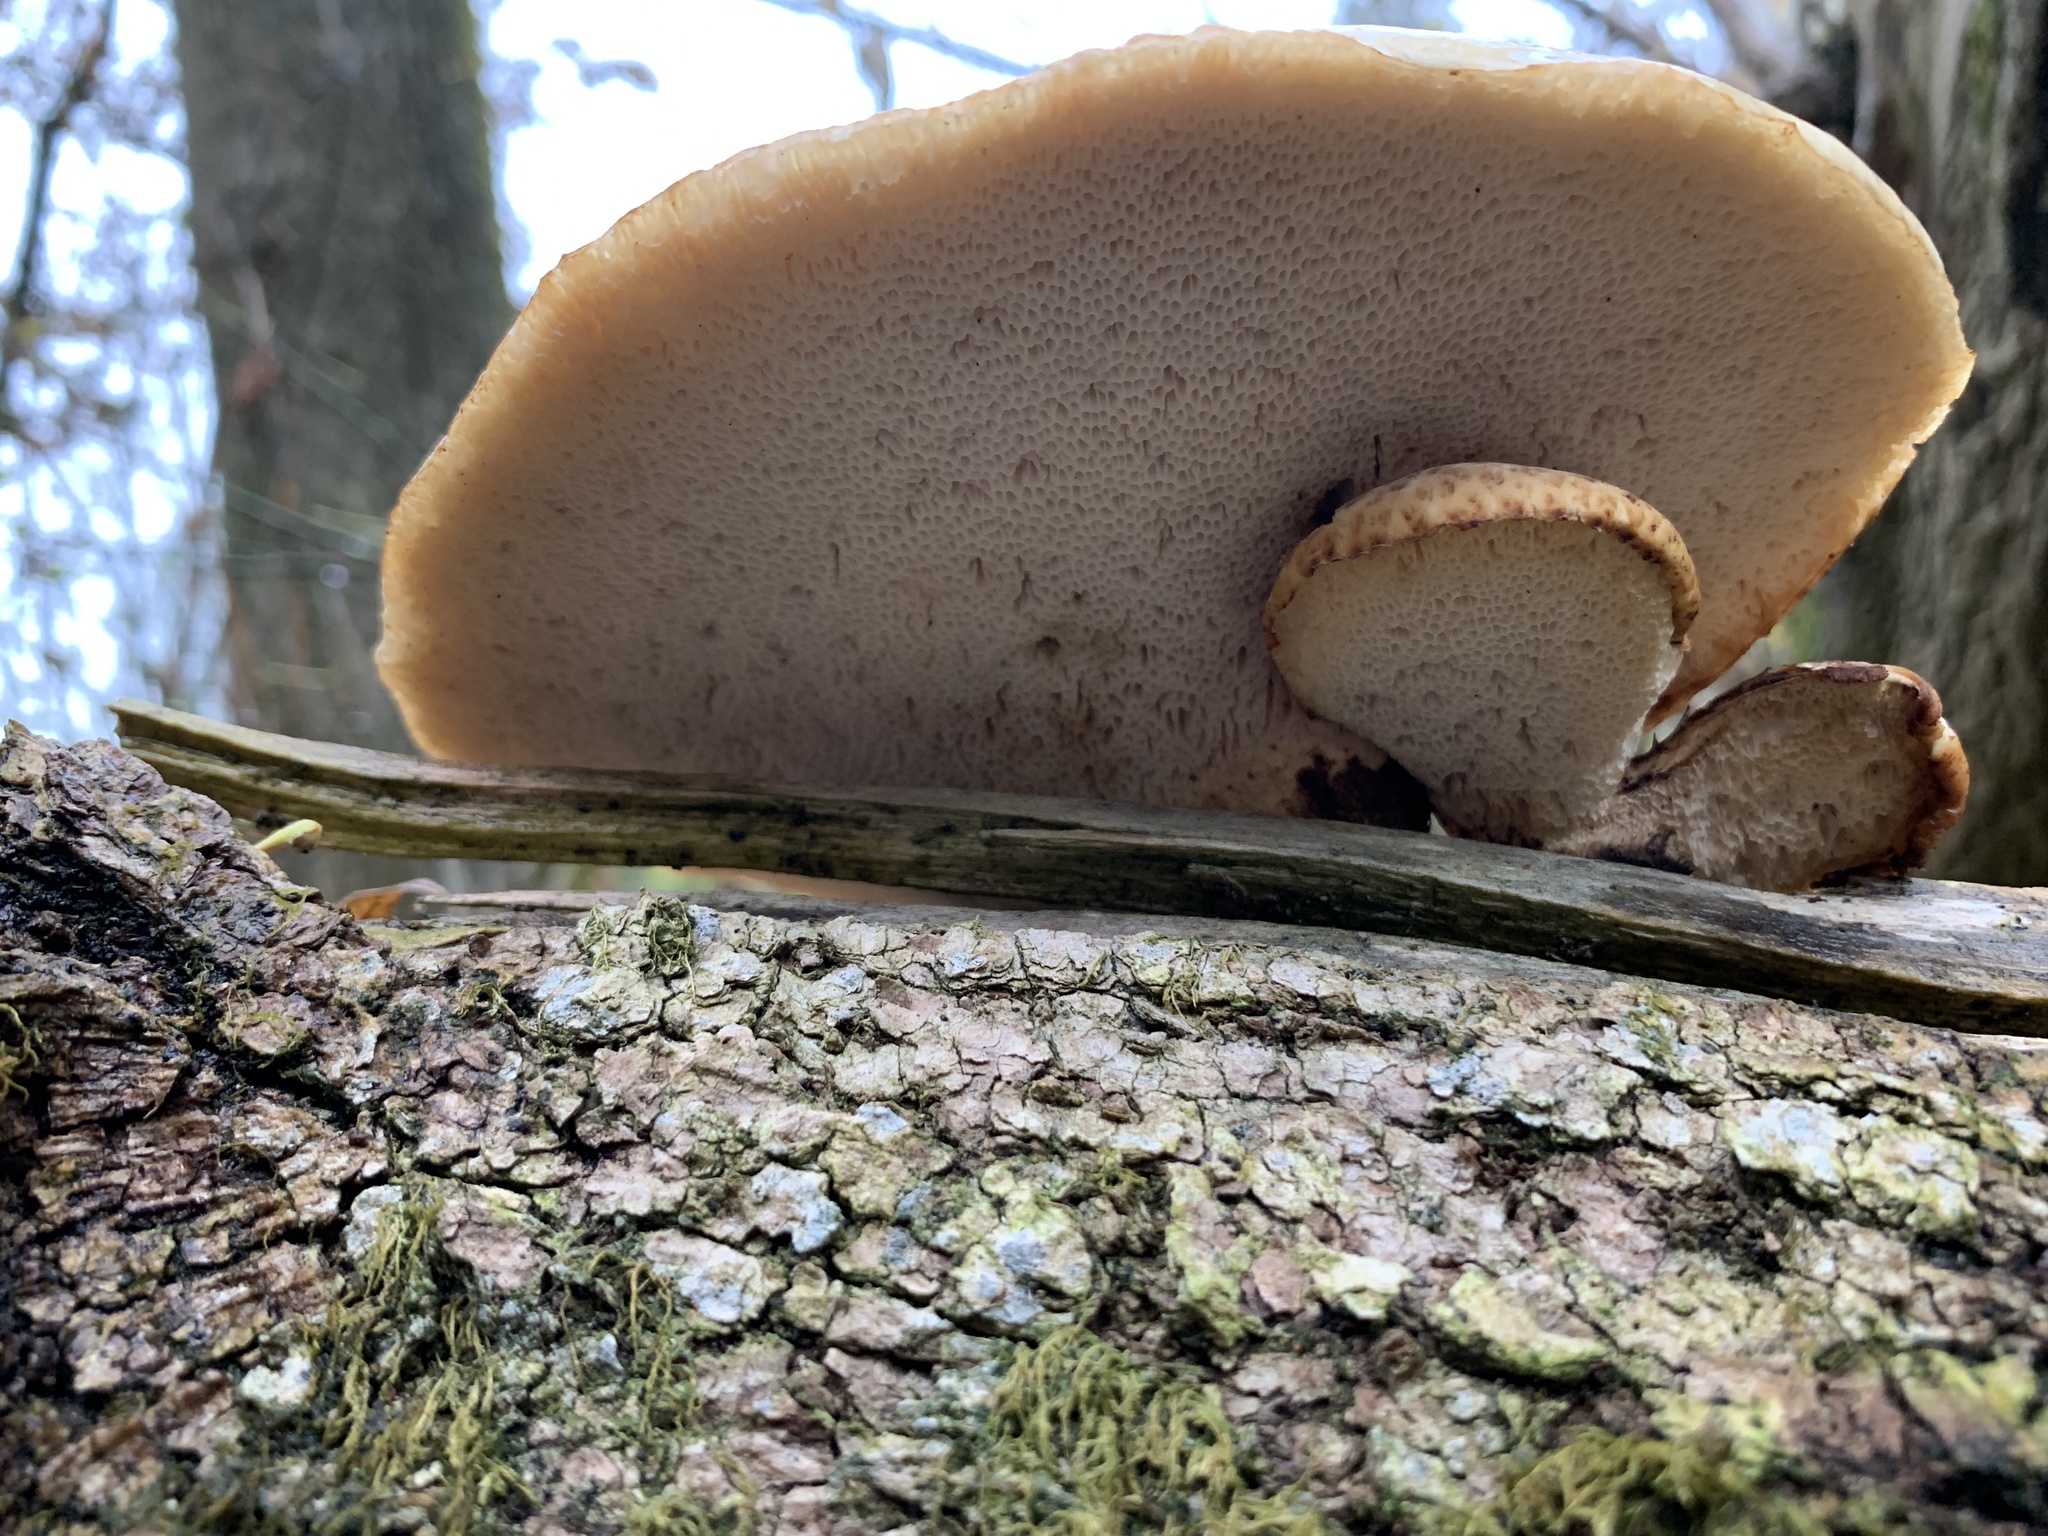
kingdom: Fungi
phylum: Basidiomycota
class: Agaricomycetes
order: Polyporales
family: Polyporaceae
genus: Cerioporus
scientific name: Cerioporus squamosus
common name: Dryad's saddle
